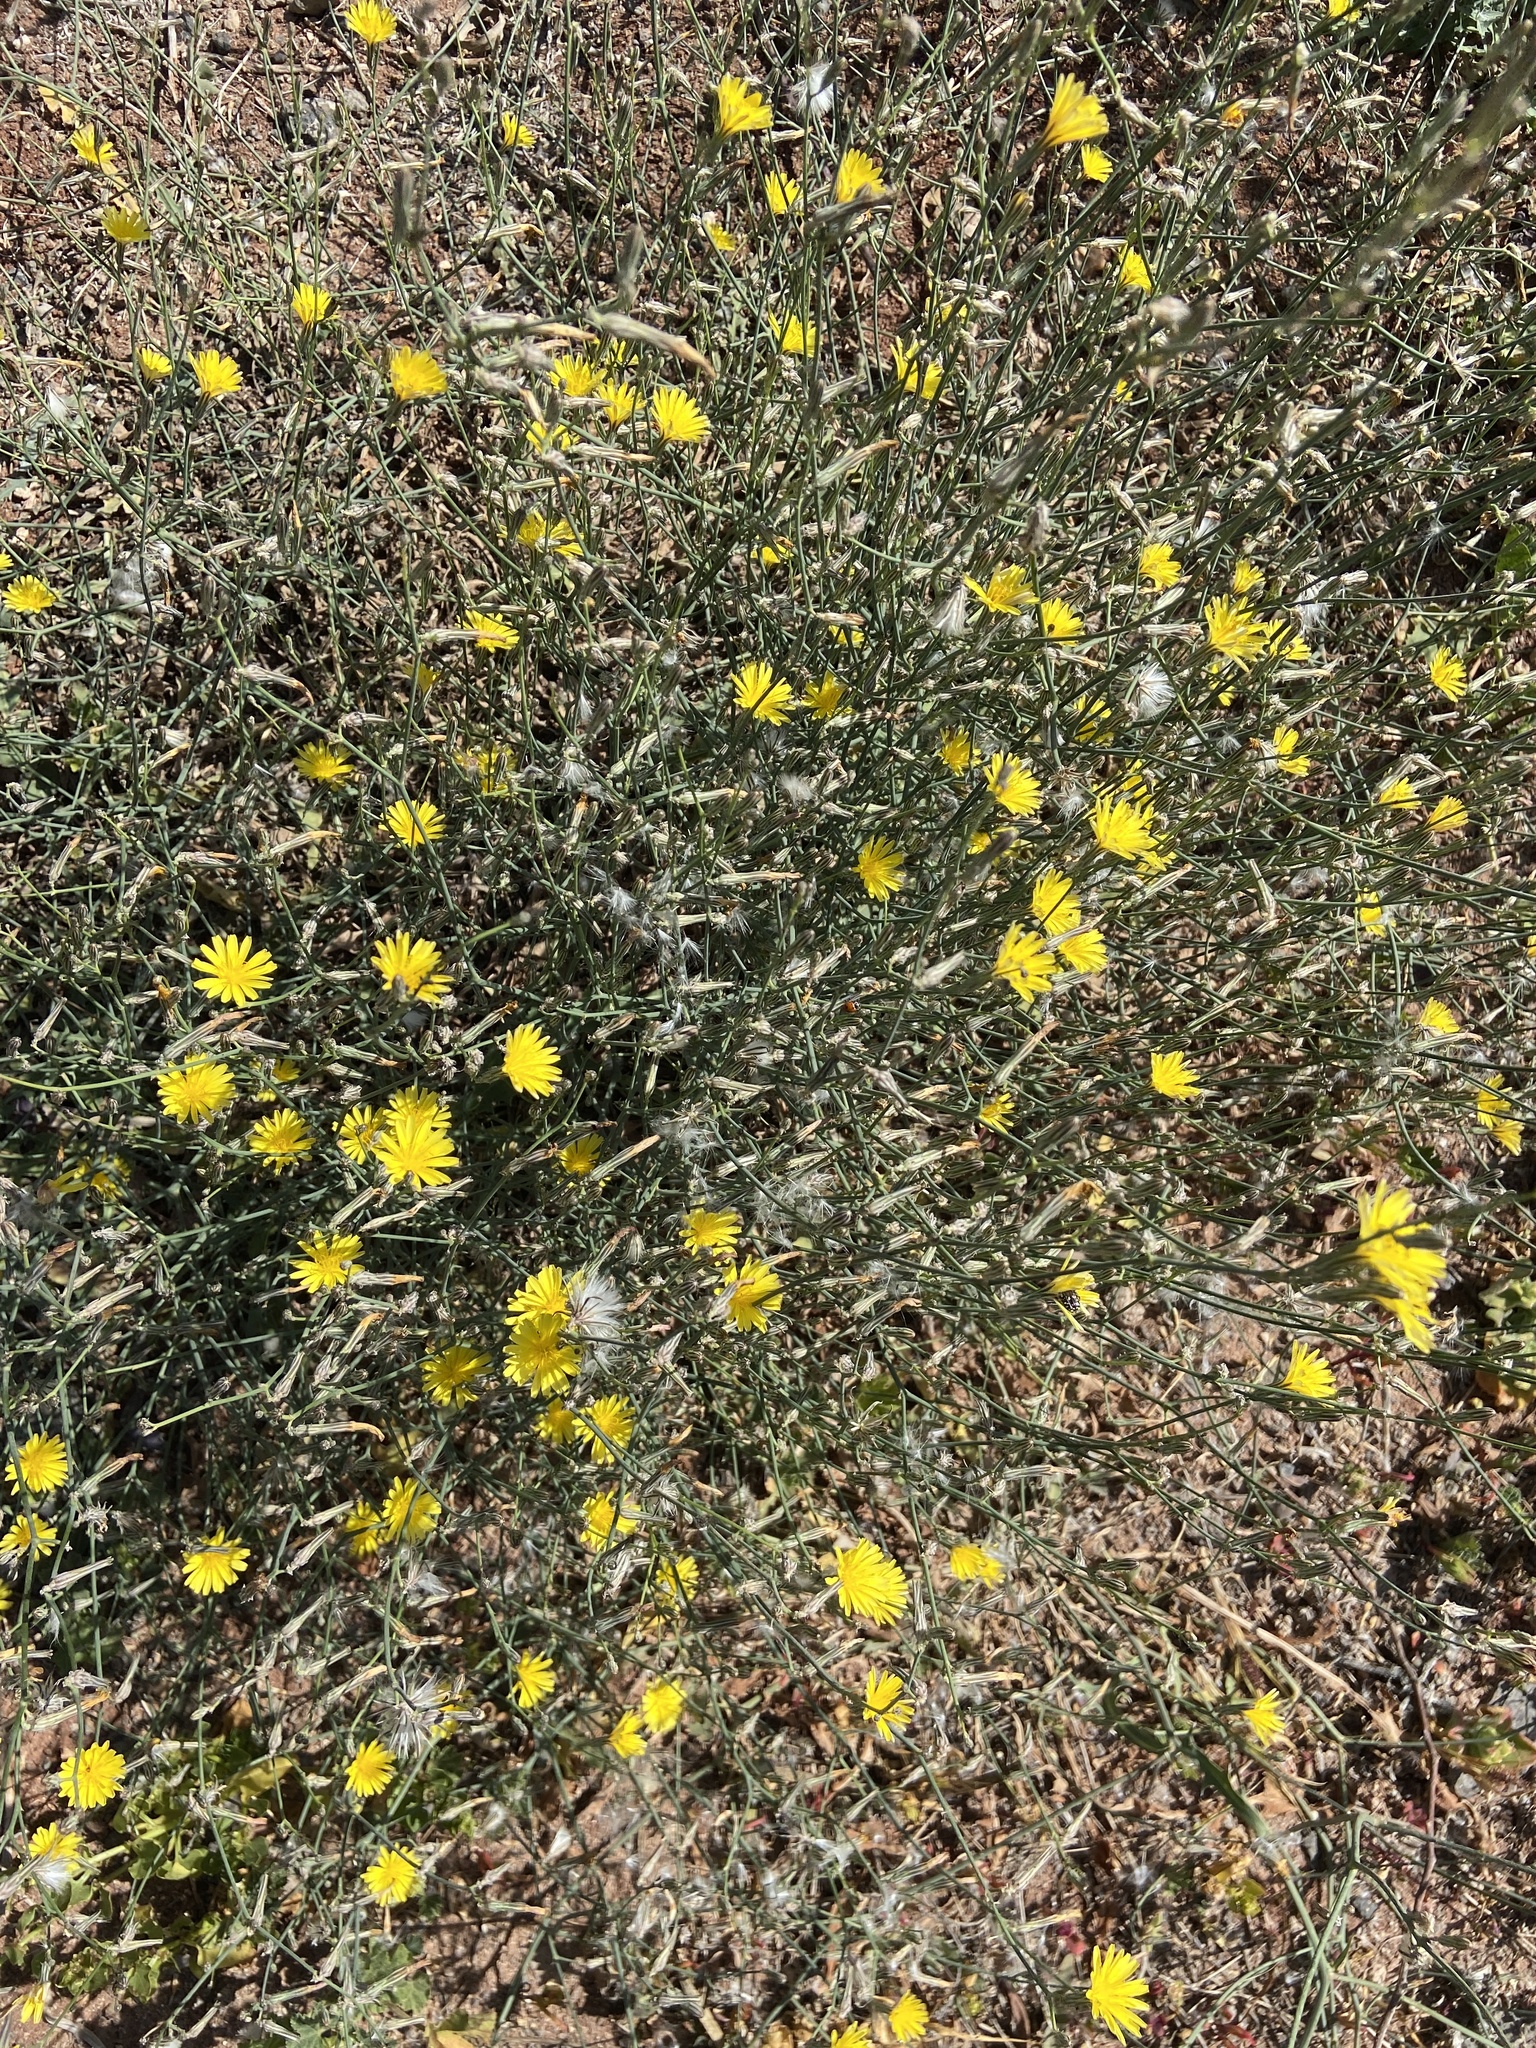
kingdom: Plantae
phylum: Tracheophyta
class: Magnoliopsida
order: Asterales
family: Asteraceae
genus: Launaea
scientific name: Launaea mucronata
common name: Mucronate launea
